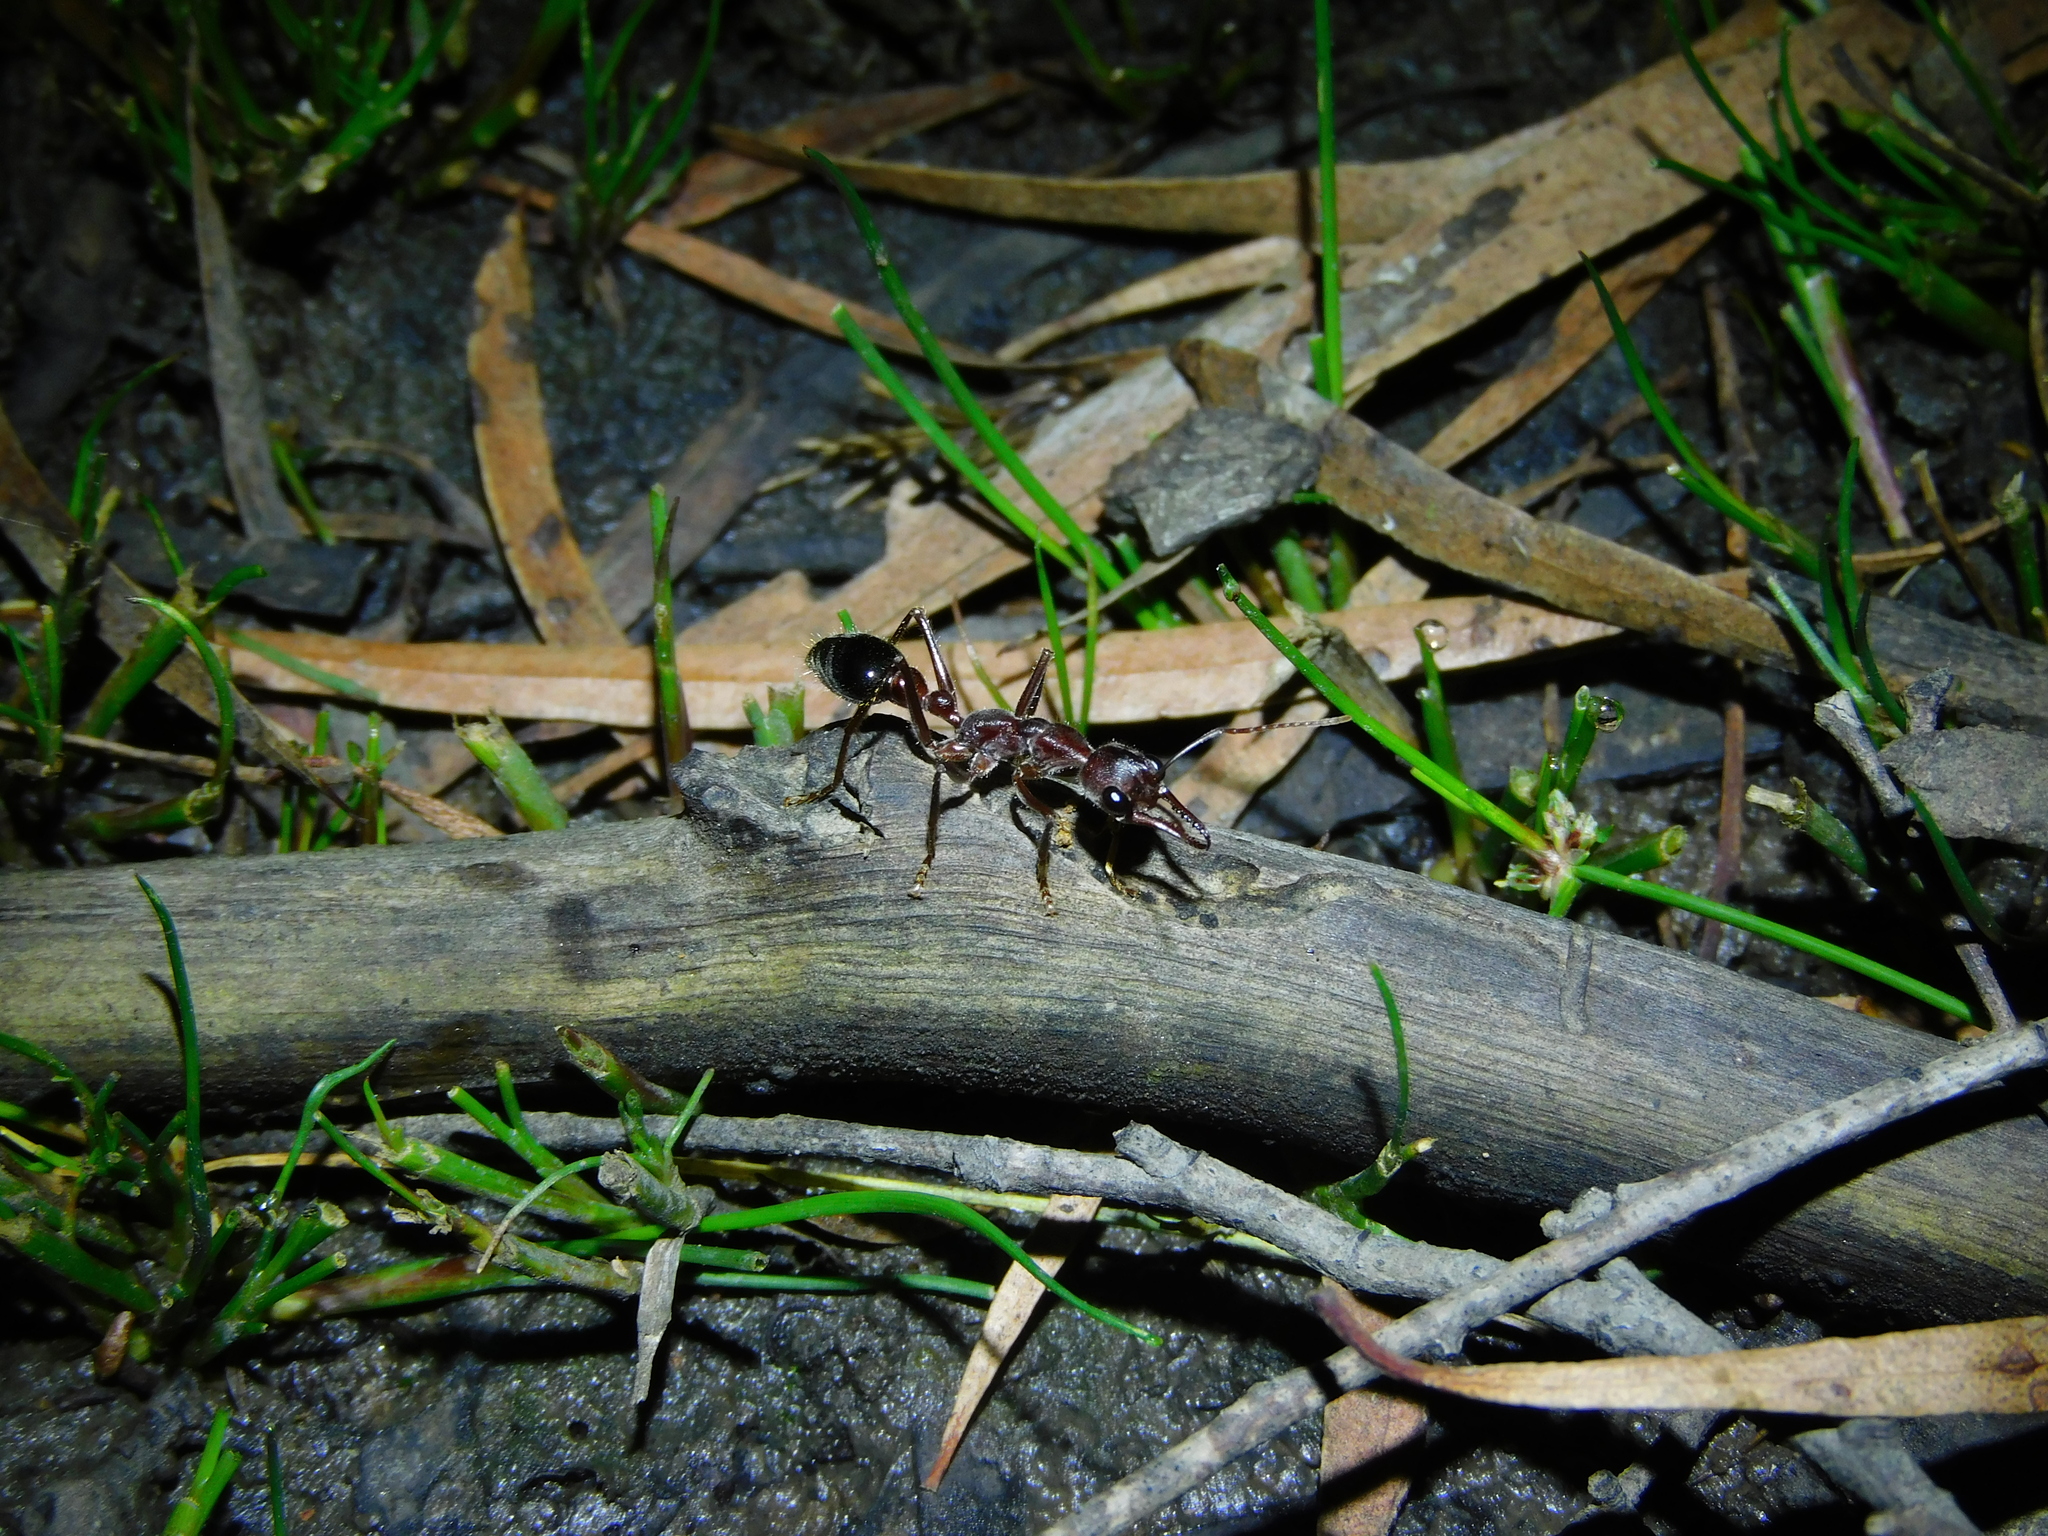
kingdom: Animalia
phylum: Arthropoda
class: Insecta
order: Hymenoptera
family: Formicidae
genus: Myrmecia
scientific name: Myrmecia forficata
